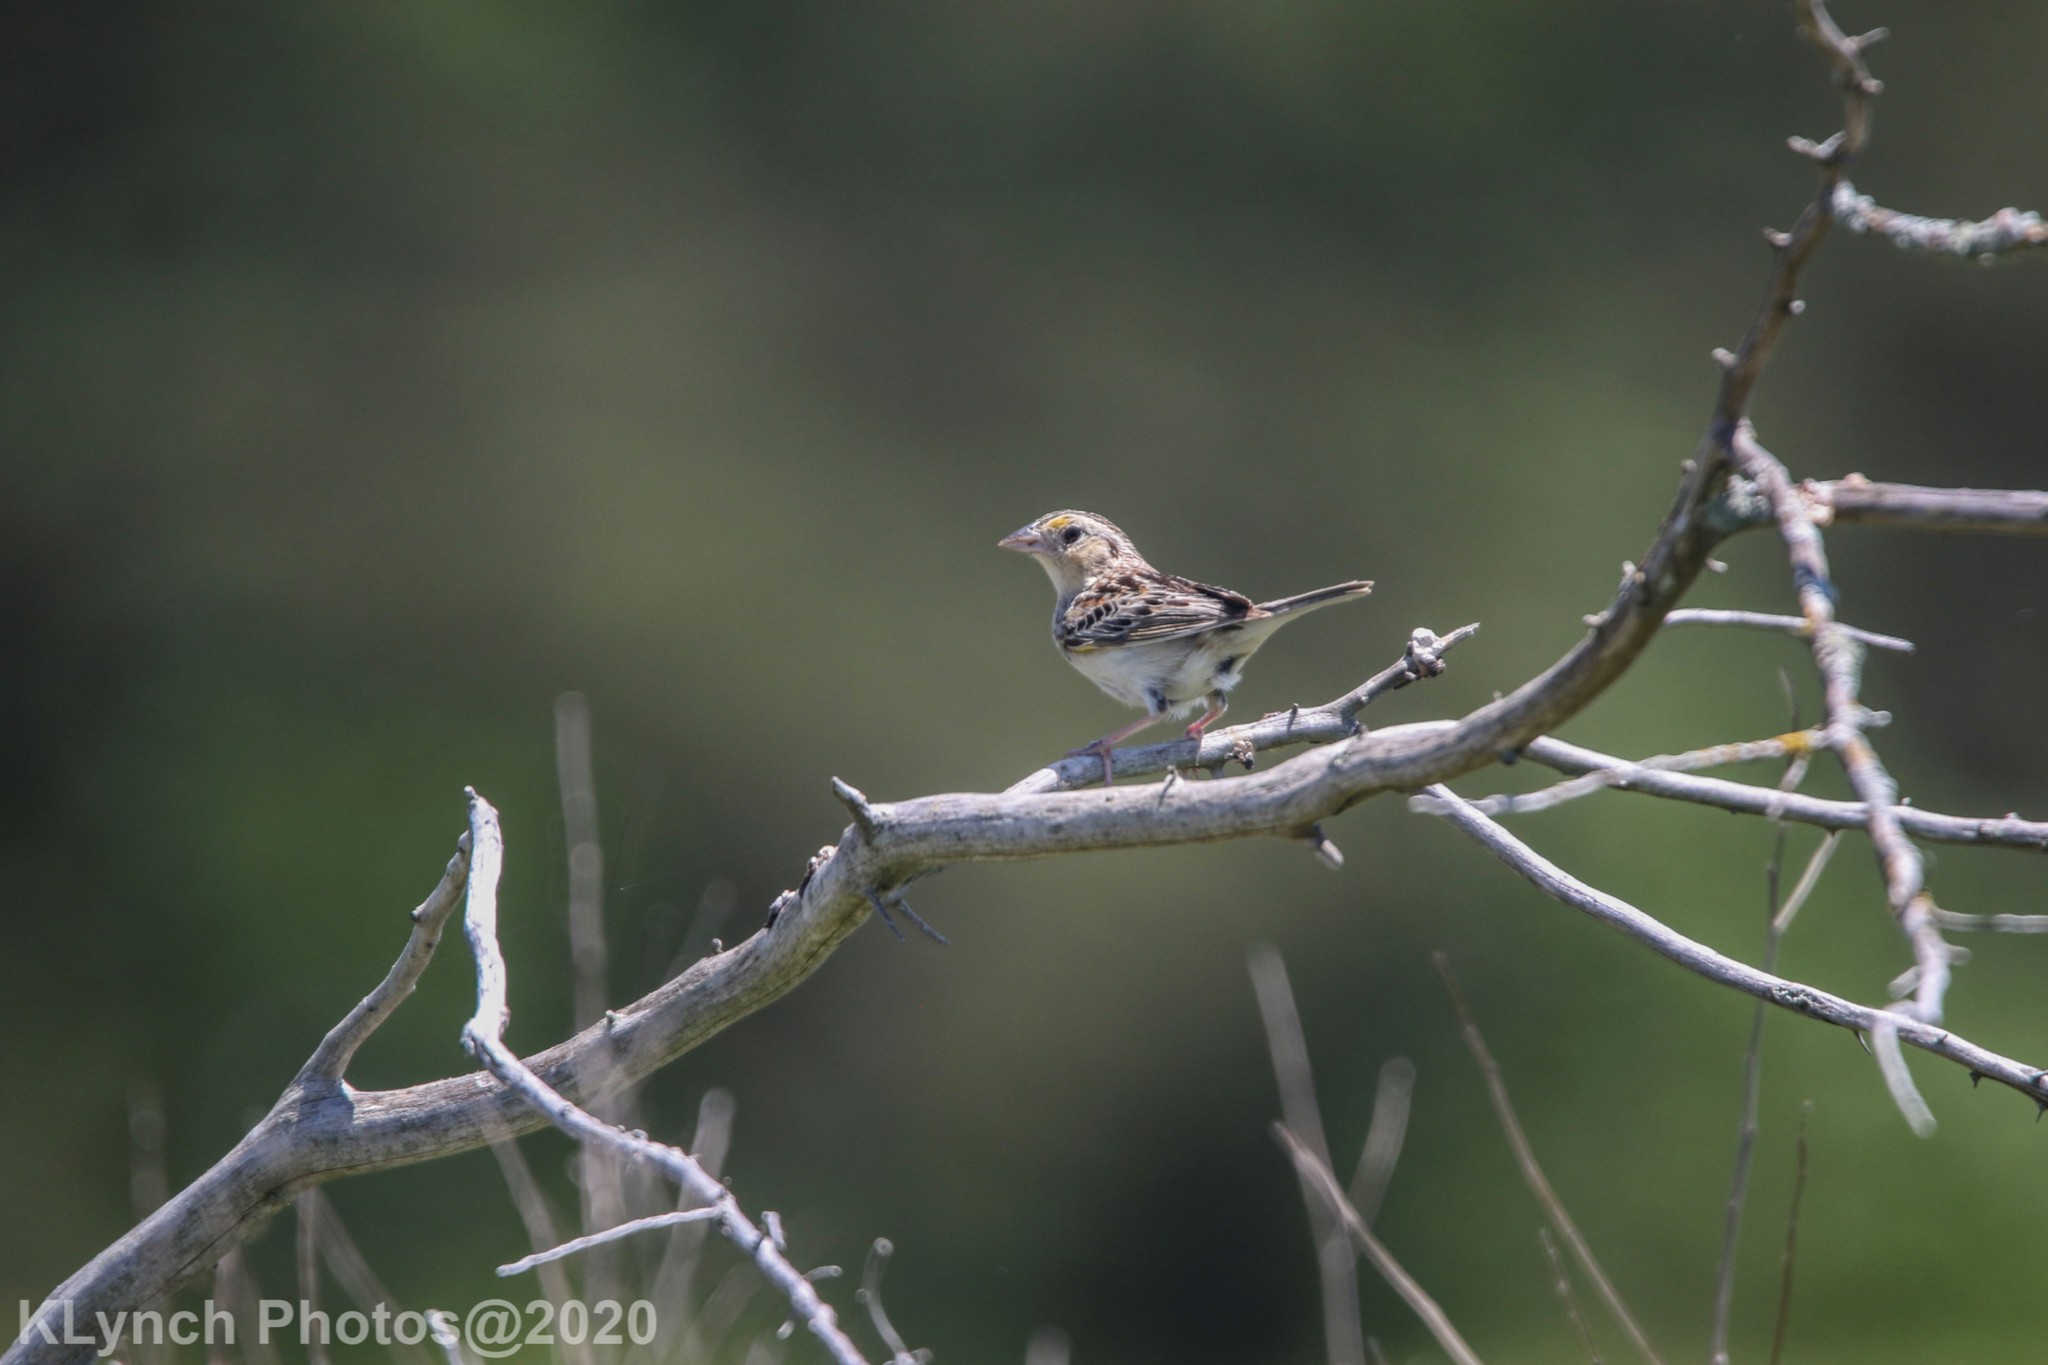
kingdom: Animalia
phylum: Chordata
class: Aves
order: Passeriformes
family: Passerellidae
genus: Ammodramus
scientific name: Ammodramus savannarum
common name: Grasshopper sparrow
